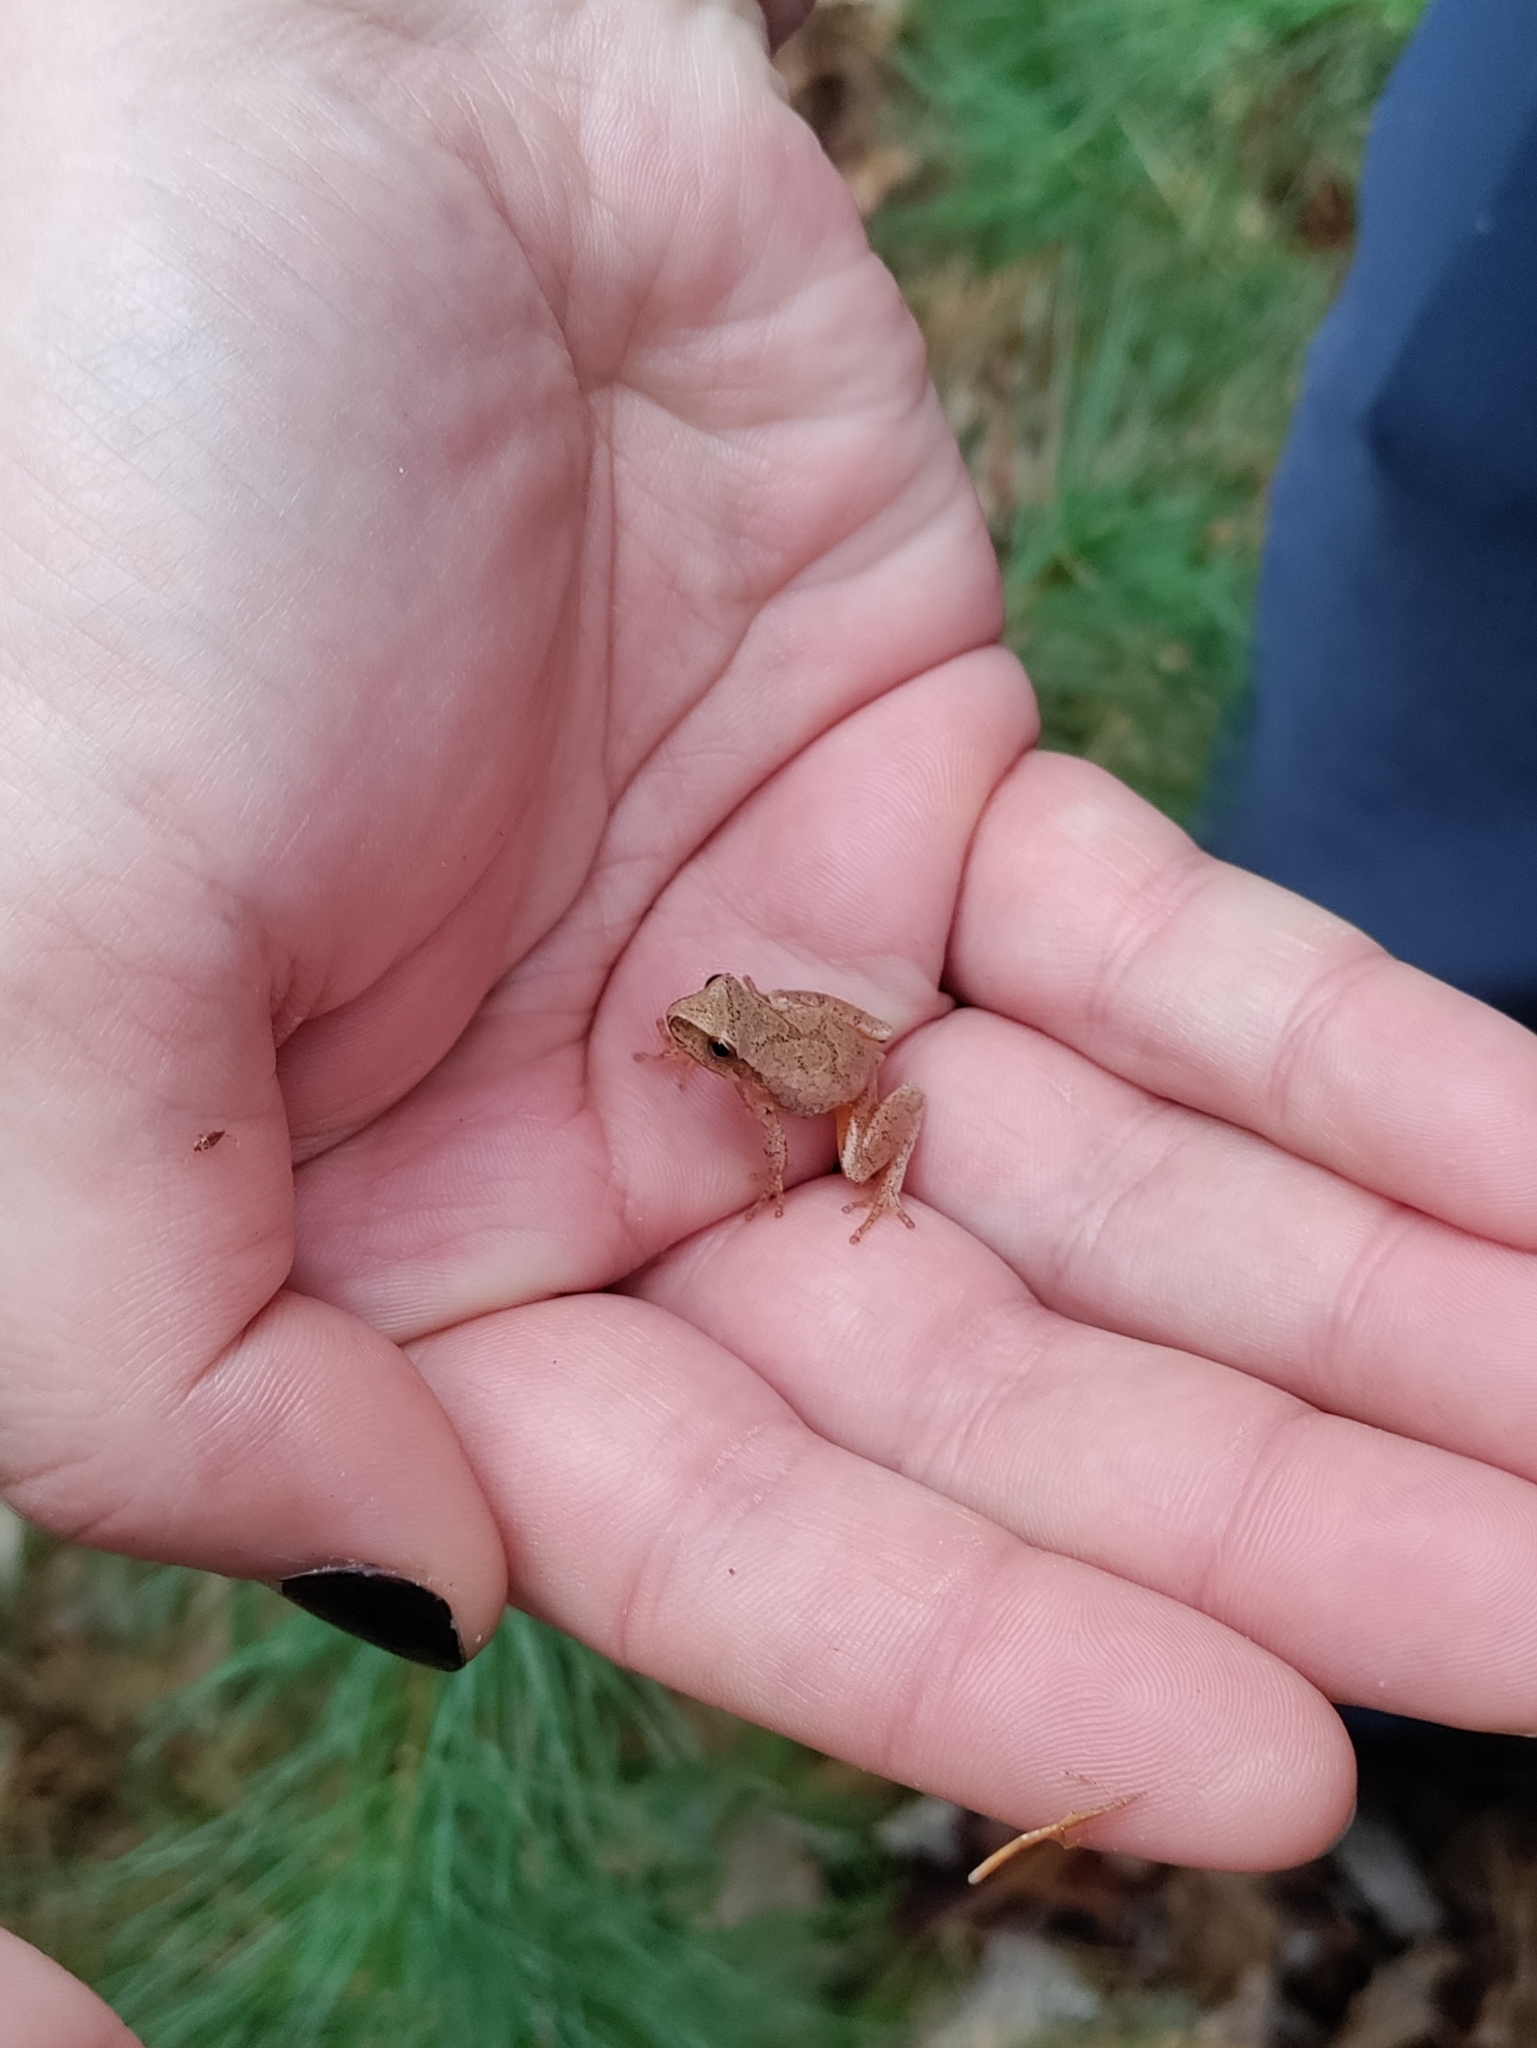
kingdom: Animalia
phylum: Chordata
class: Amphibia
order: Anura
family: Hylidae
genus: Pseudacris
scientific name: Pseudacris crucifer
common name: Spring peeper
